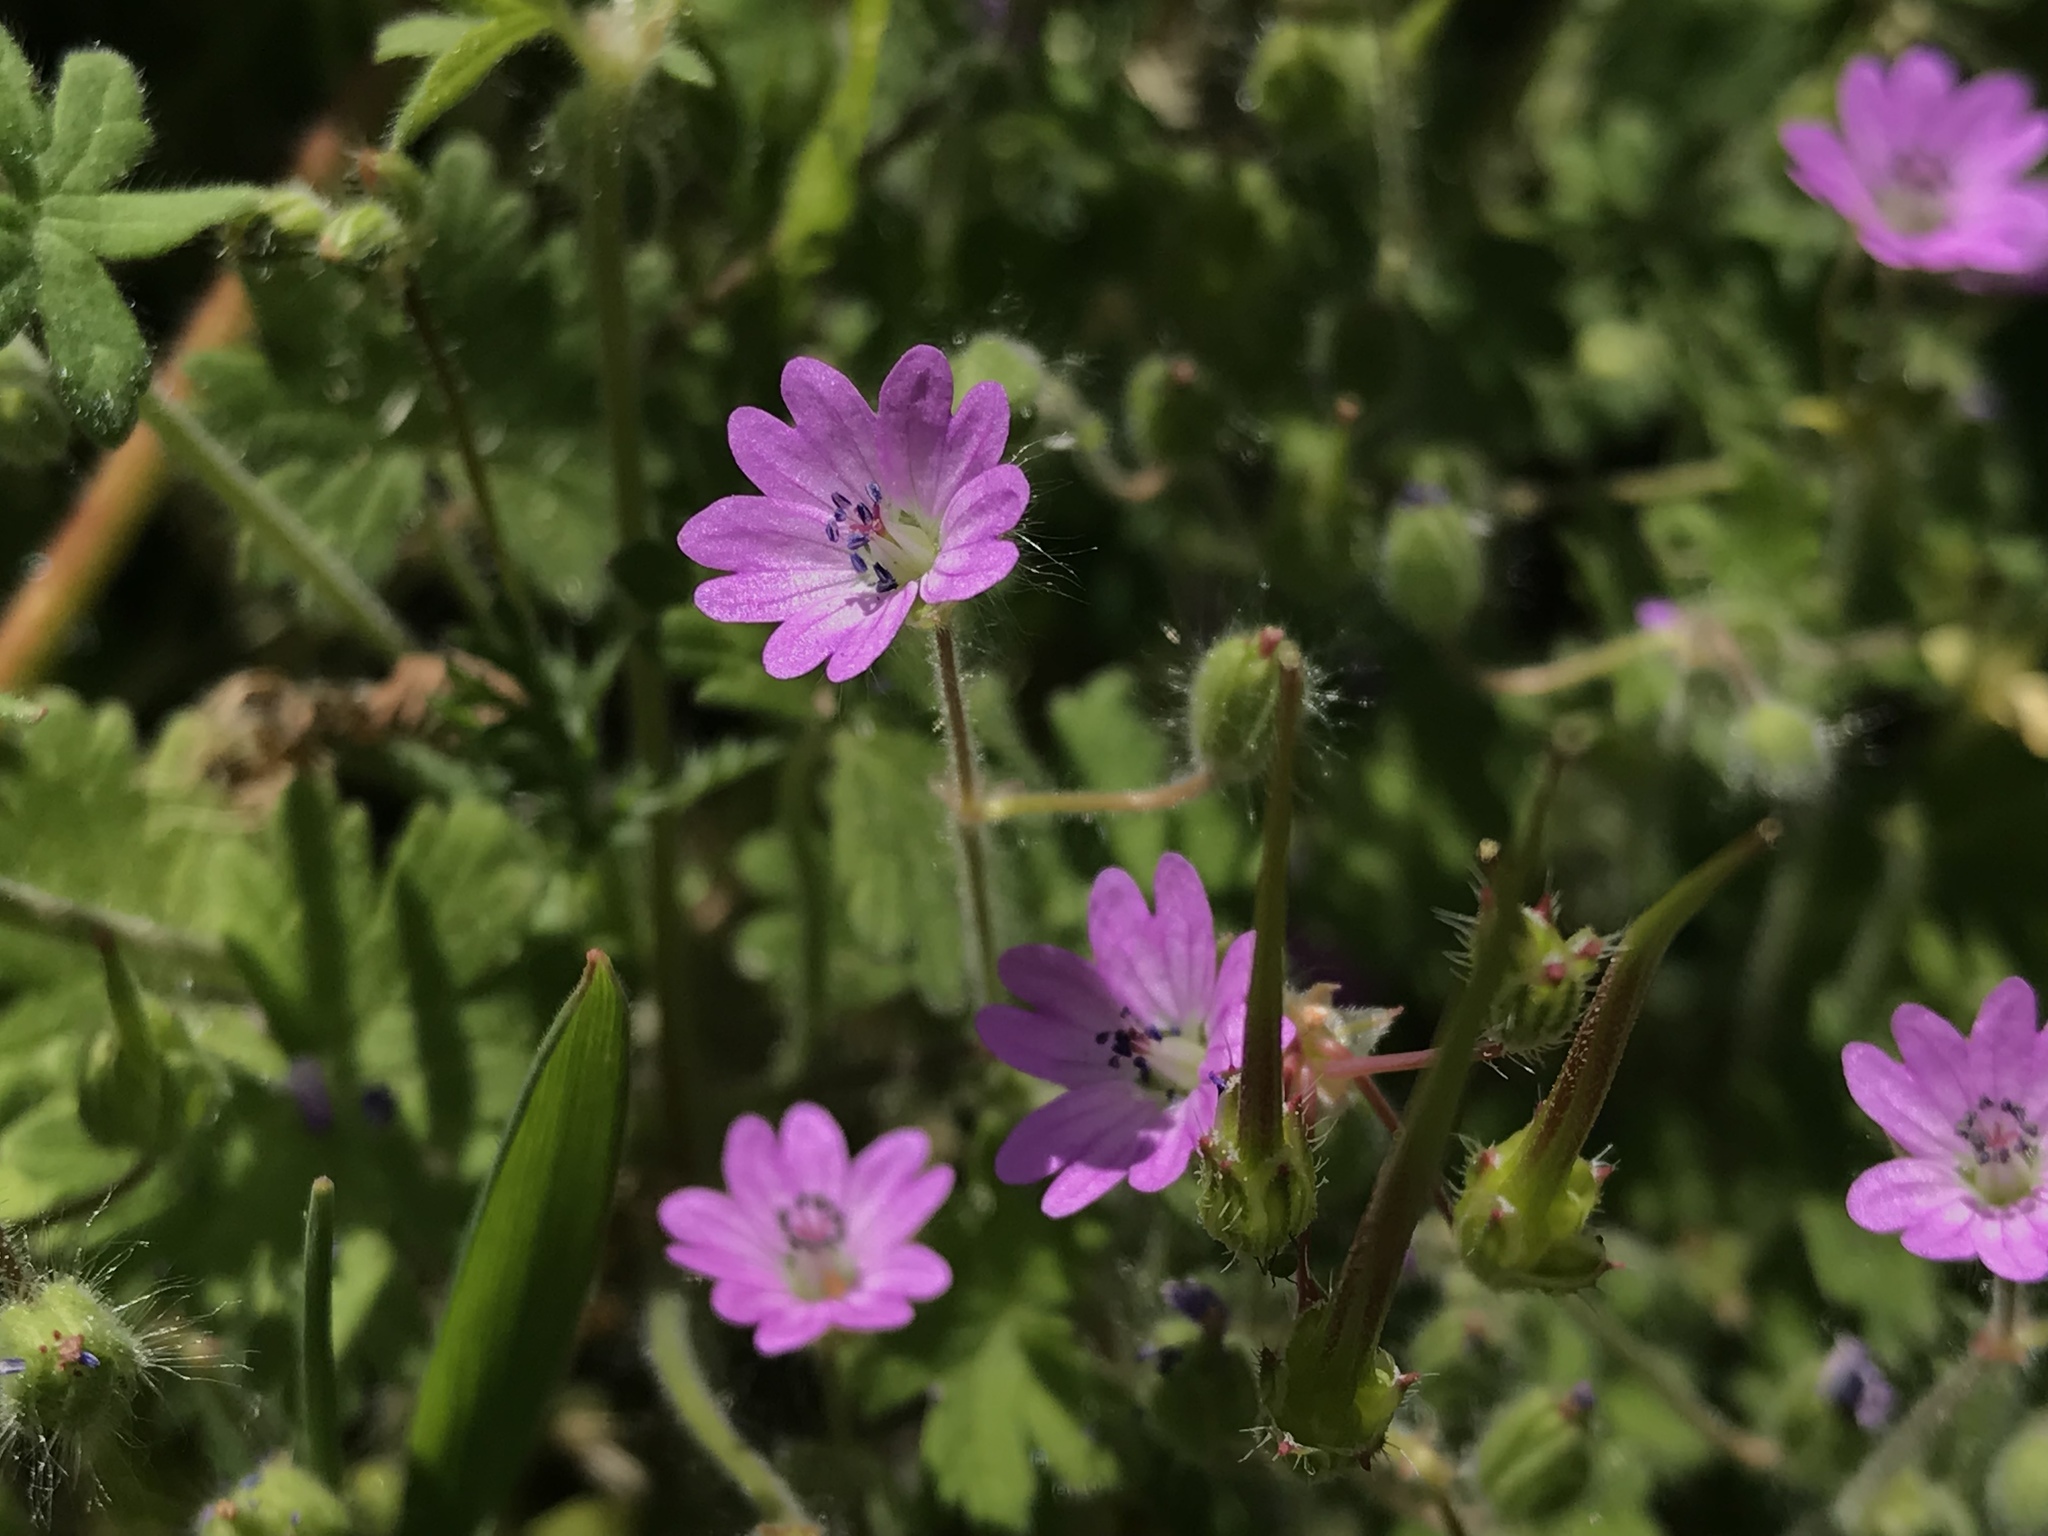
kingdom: Plantae
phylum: Tracheophyta
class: Magnoliopsida
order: Geraniales
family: Geraniaceae
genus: Geranium
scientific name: Geranium molle
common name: Dove's-foot crane's-bill
